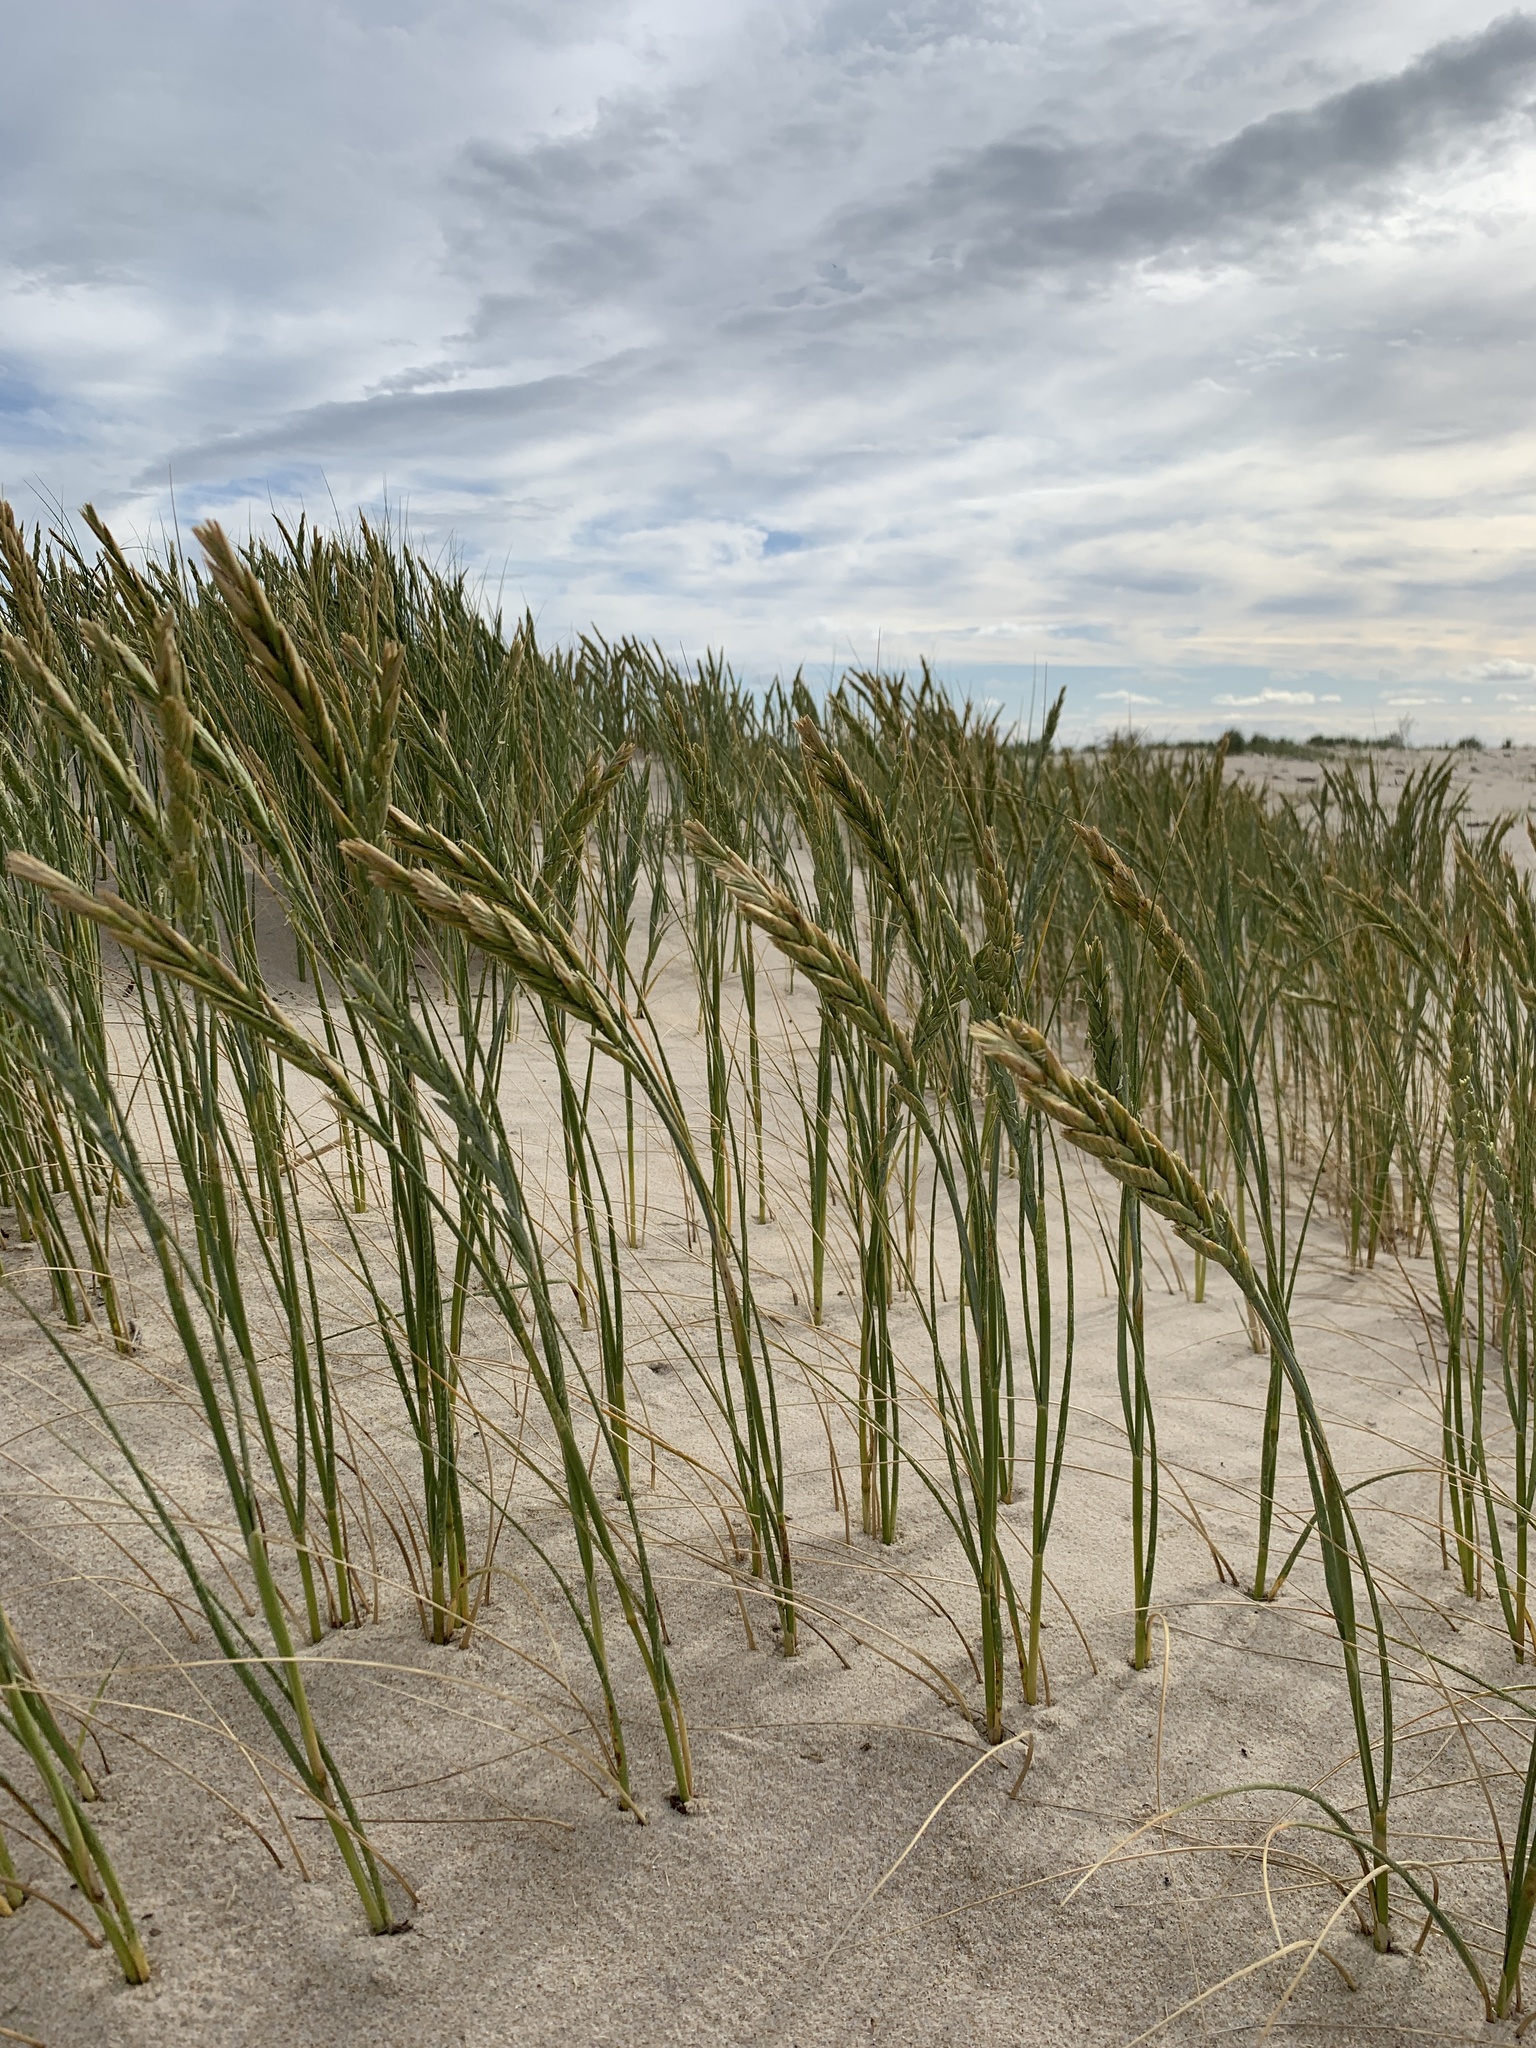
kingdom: Plantae
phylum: Tracheophyta
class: Liliopsida
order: Poales
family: Poaceae
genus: Thinopyrum
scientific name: Thinopyrum distichum
